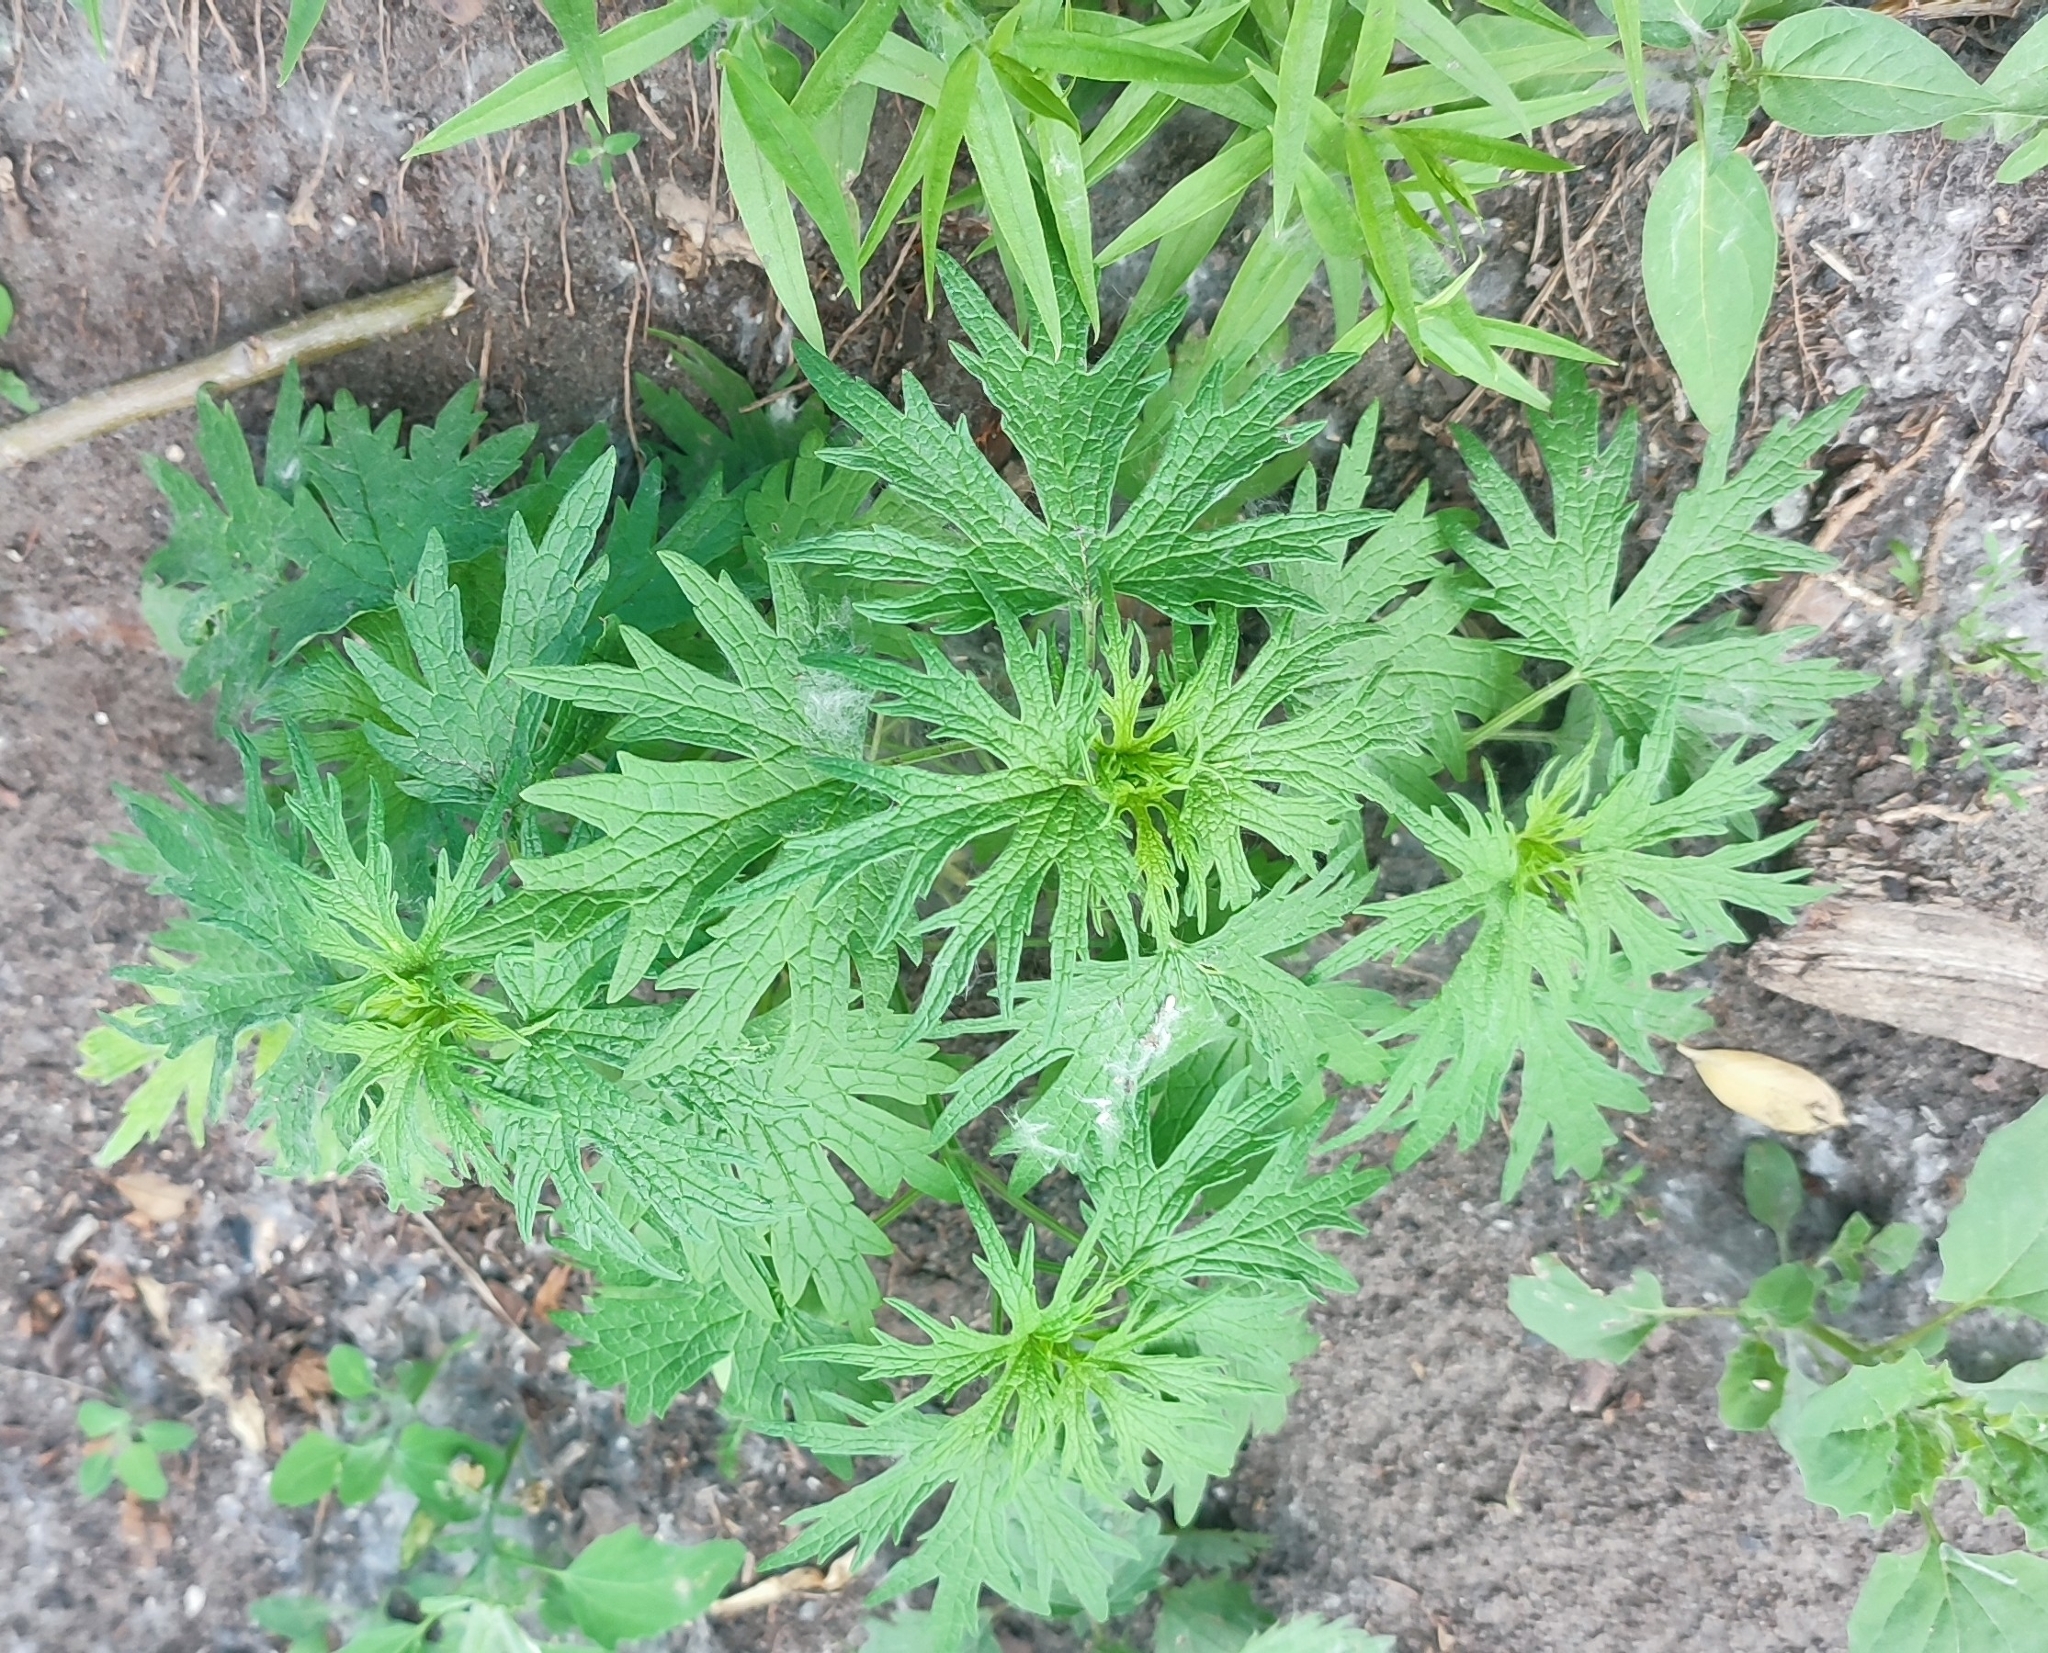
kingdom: Plantae
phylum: Tracheophyta
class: Magnoliopsida
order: Lamiales
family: Lamiaceae
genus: Leonurus
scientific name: Leonurus glaucescens
